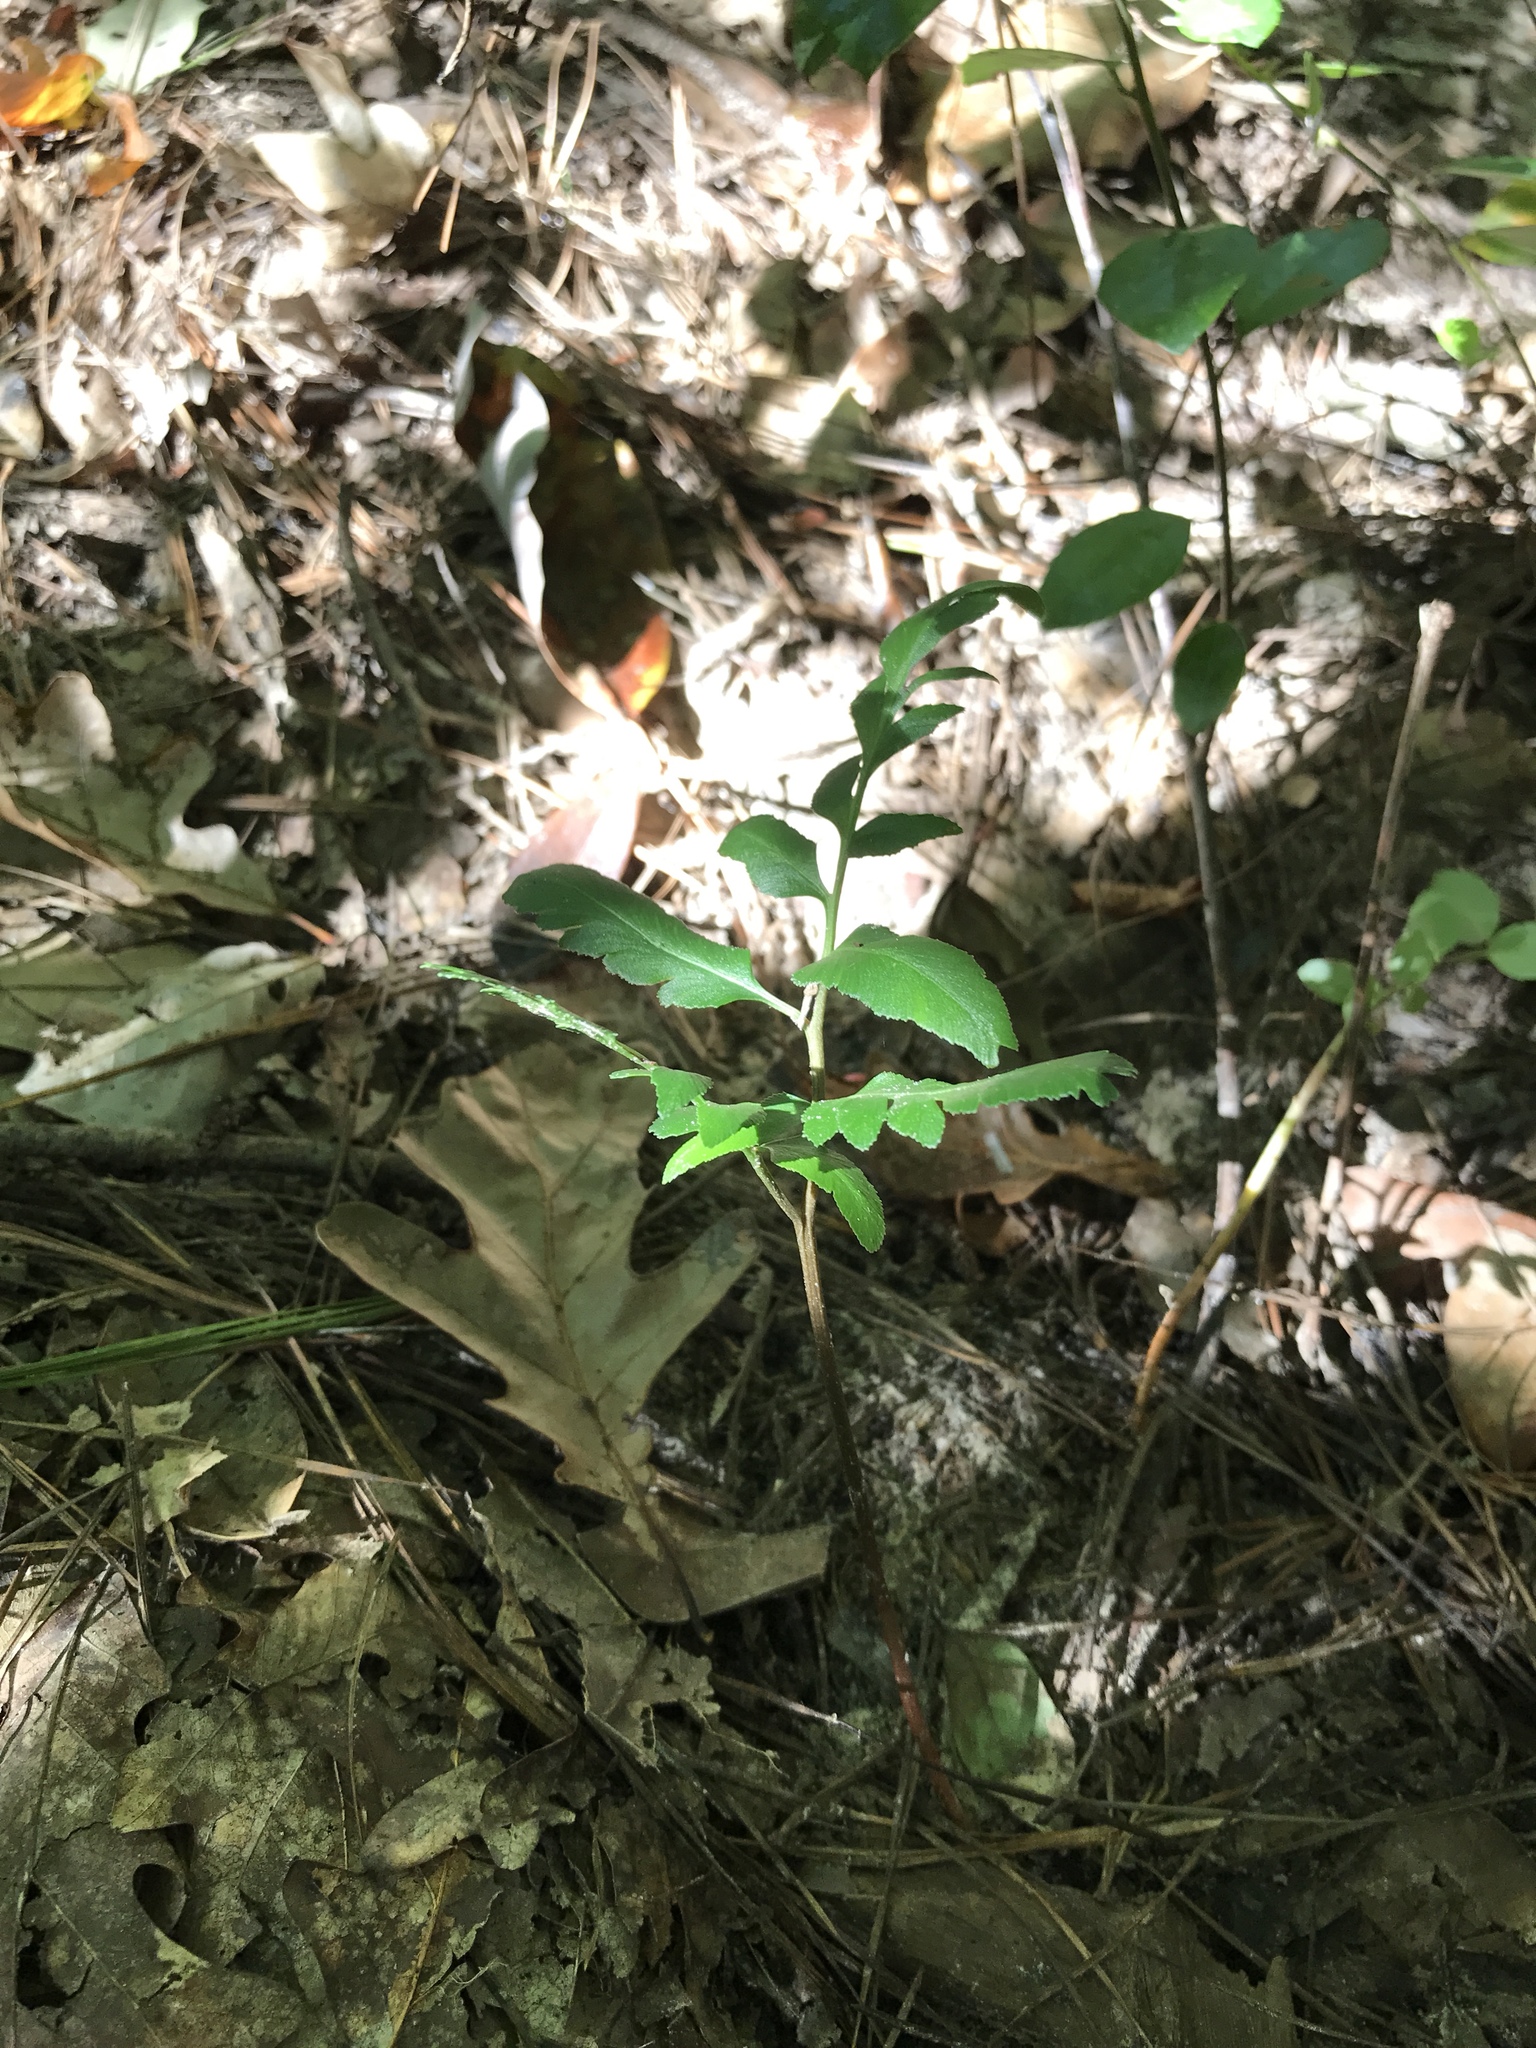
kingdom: Plantae
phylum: Tracheophyta
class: Polypodiopsida
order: Ophioglossales
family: Ophioglossaceae
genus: Sceptridium
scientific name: Sceptridium dissectum
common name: Cut-leaved grapefern
